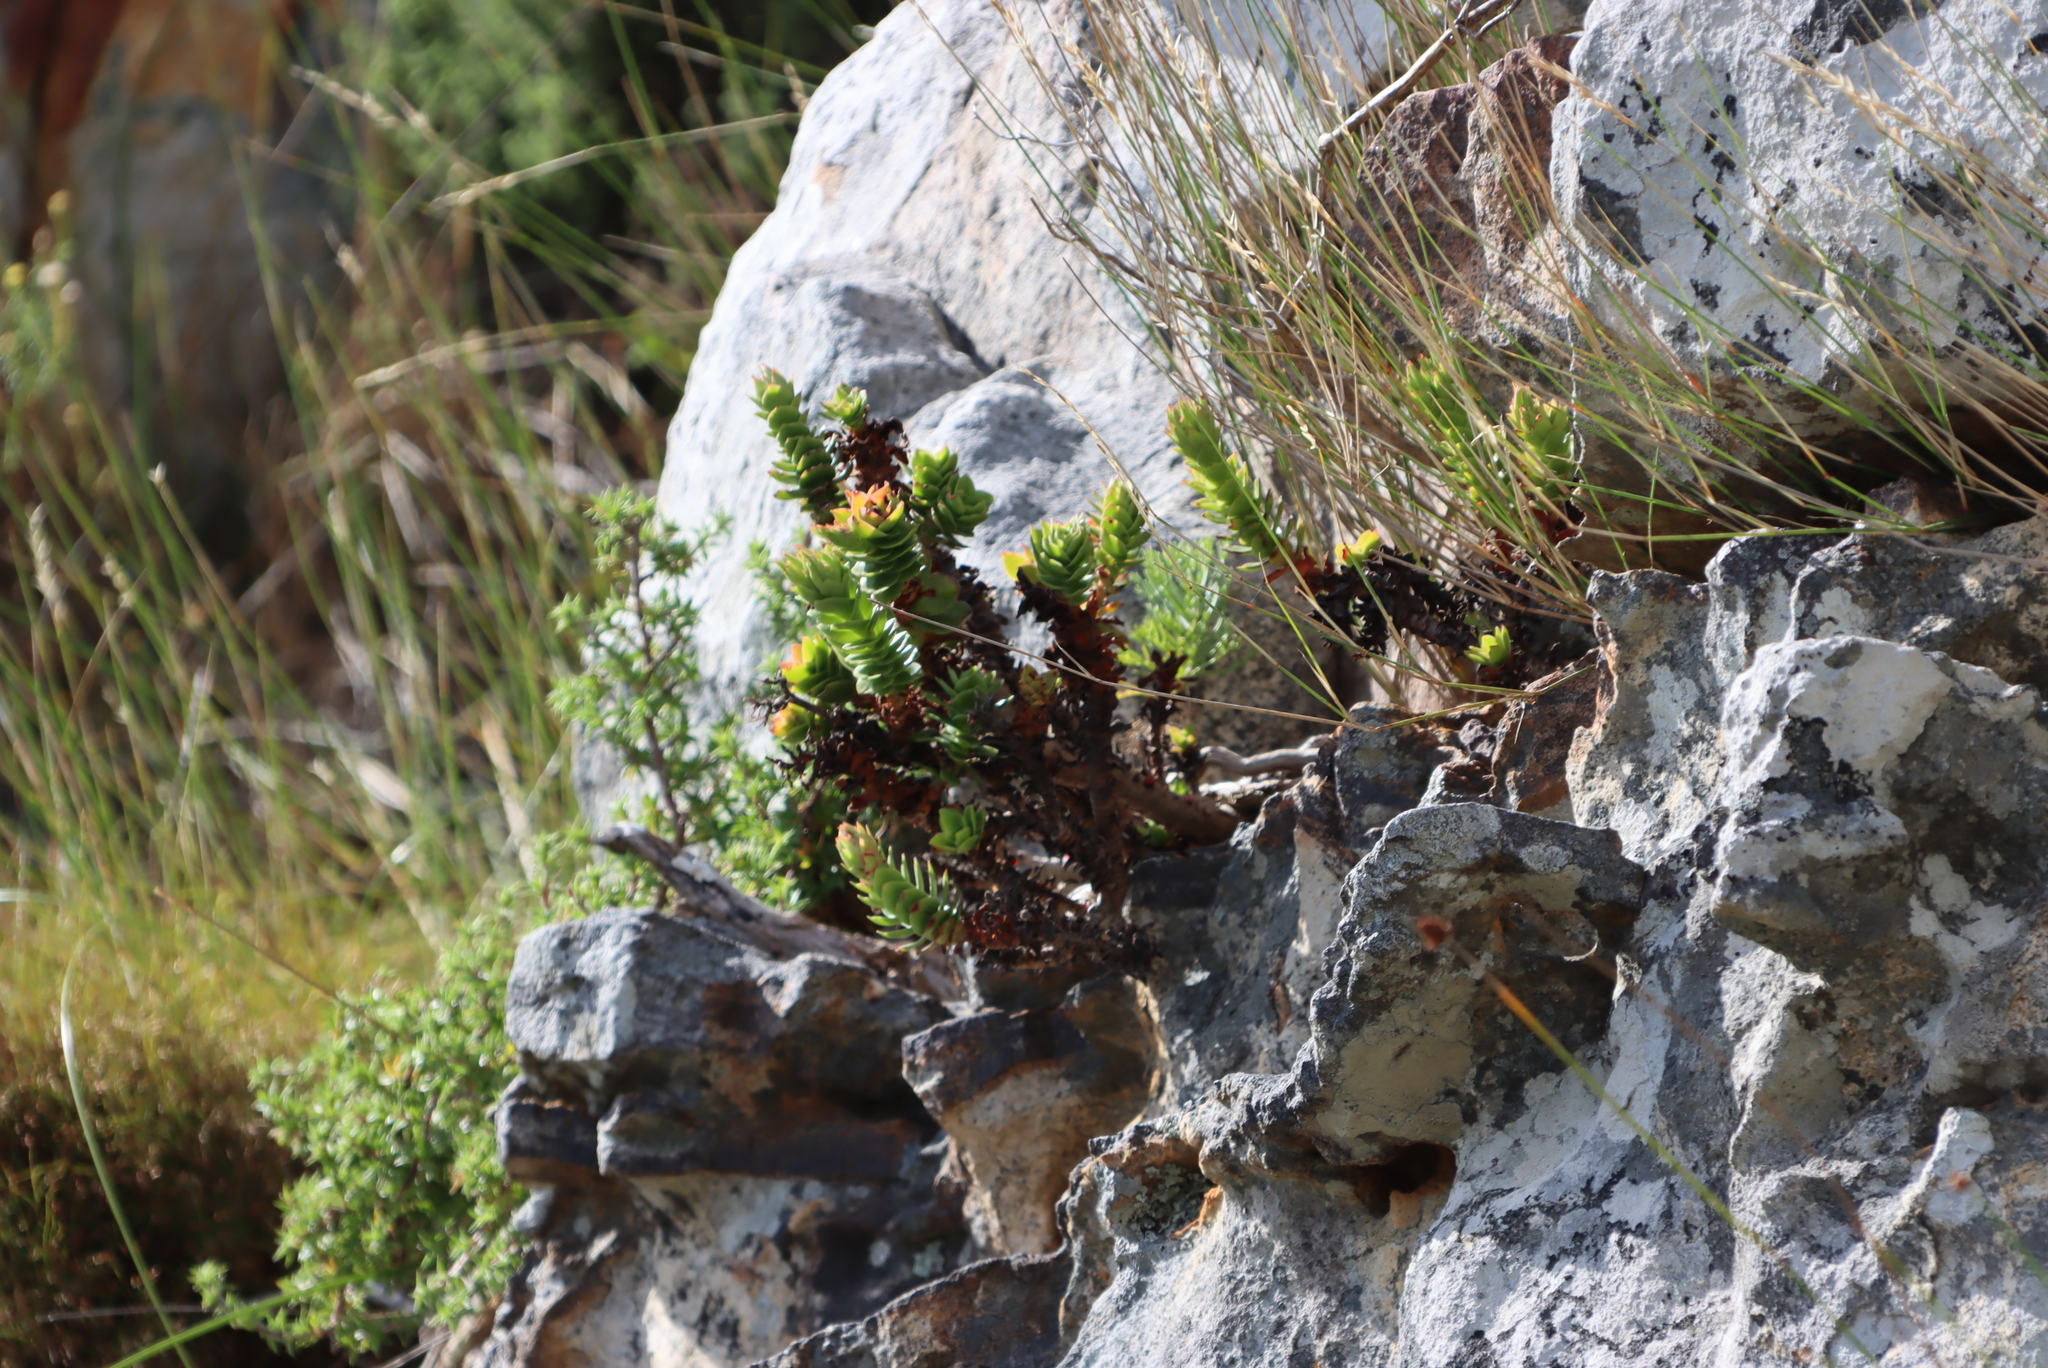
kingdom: Plantae
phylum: Tracheophyta
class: Magnoliopsida
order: Saxifragales
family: Crassulaceae
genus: Crassula
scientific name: Crassula coccinea
